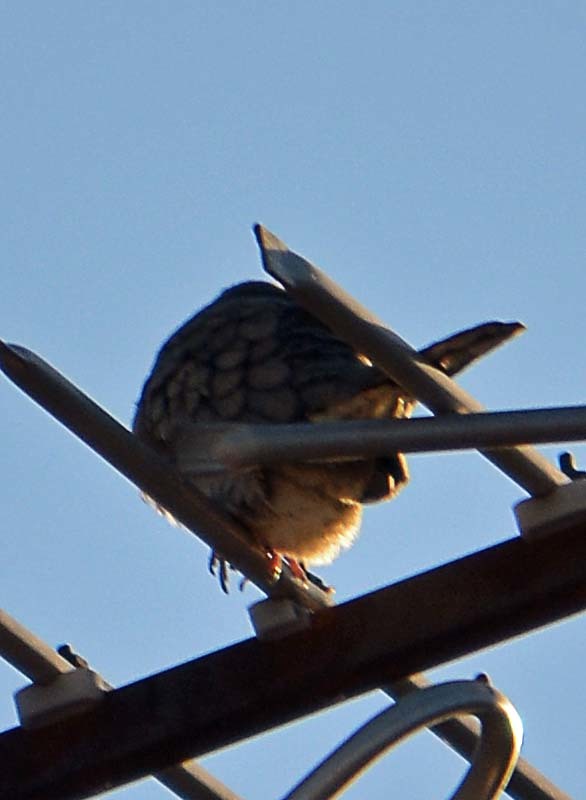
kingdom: Animalia
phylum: Chordata
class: Aves
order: Columbiformes
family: Columbidae
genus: Columbina
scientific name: Columbina inca
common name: Inca dove
